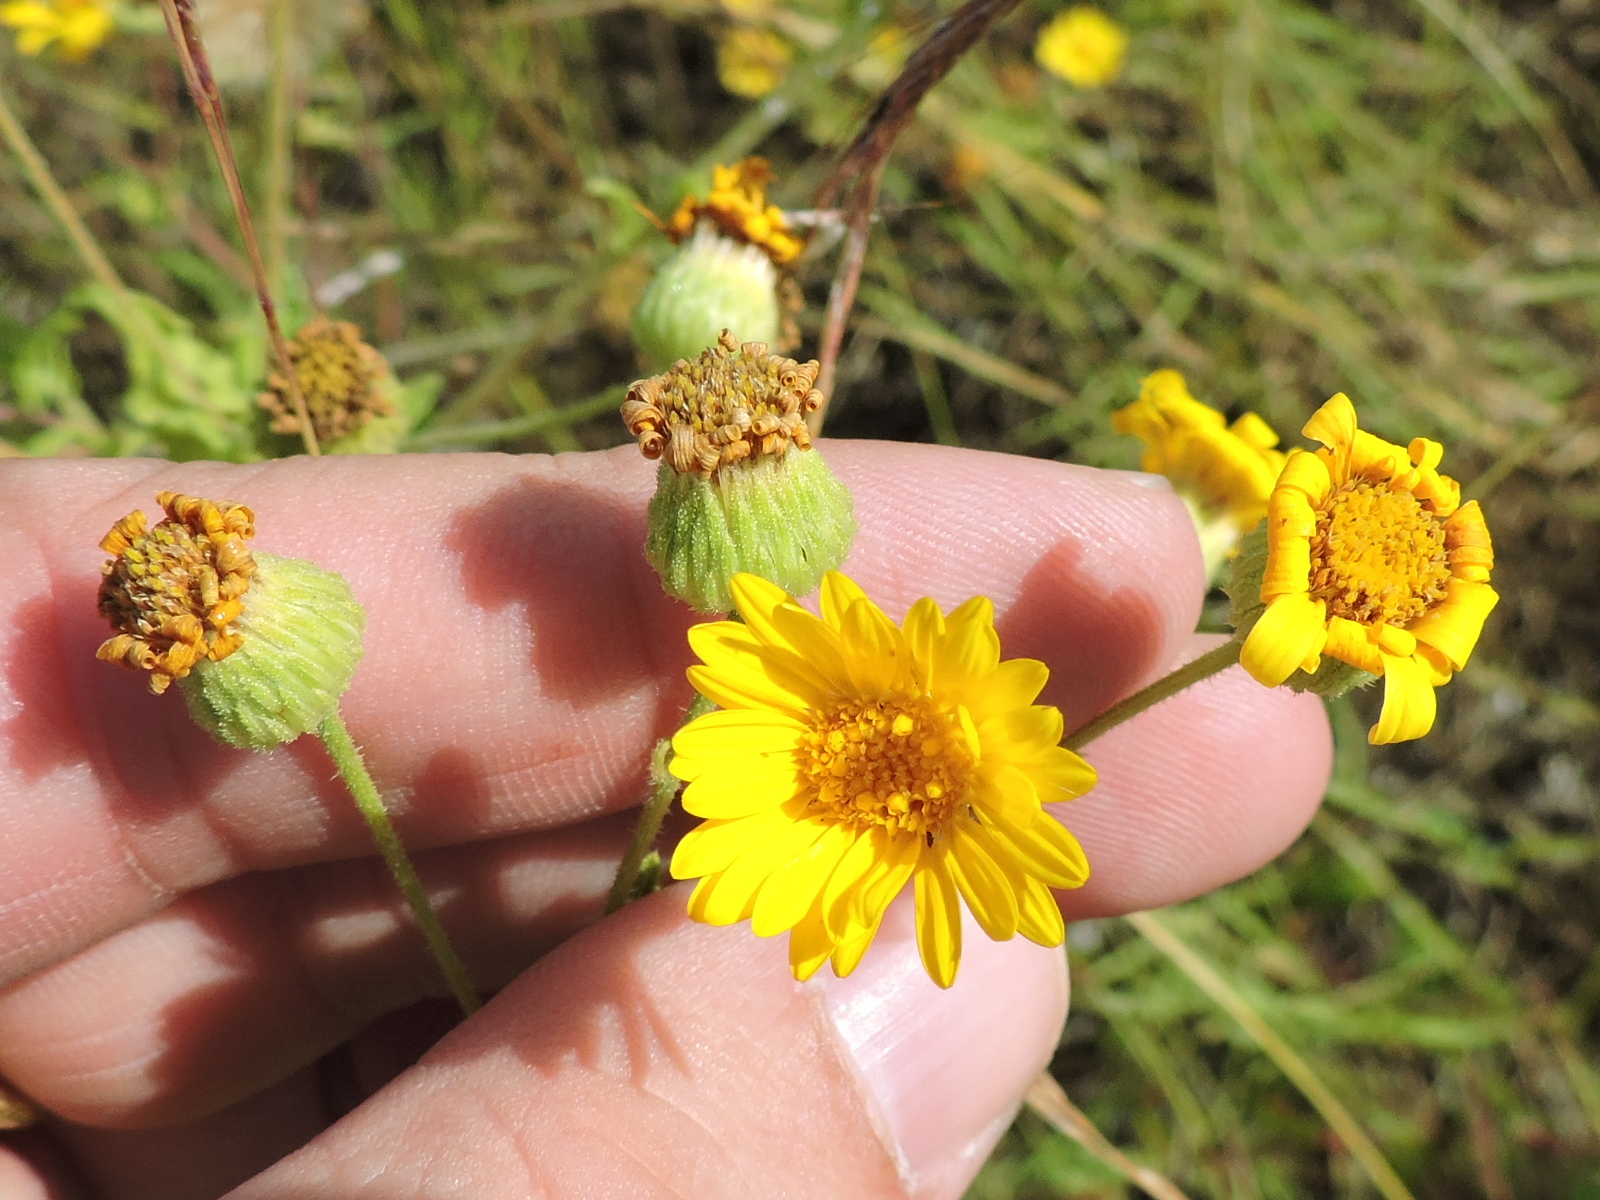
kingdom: Plantae
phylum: Tracheophyta
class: Magnoliopsida
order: Asterales
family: Asteraceae
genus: Heterotheca
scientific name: Heterotheca subaxillaris
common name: Camphorweed
